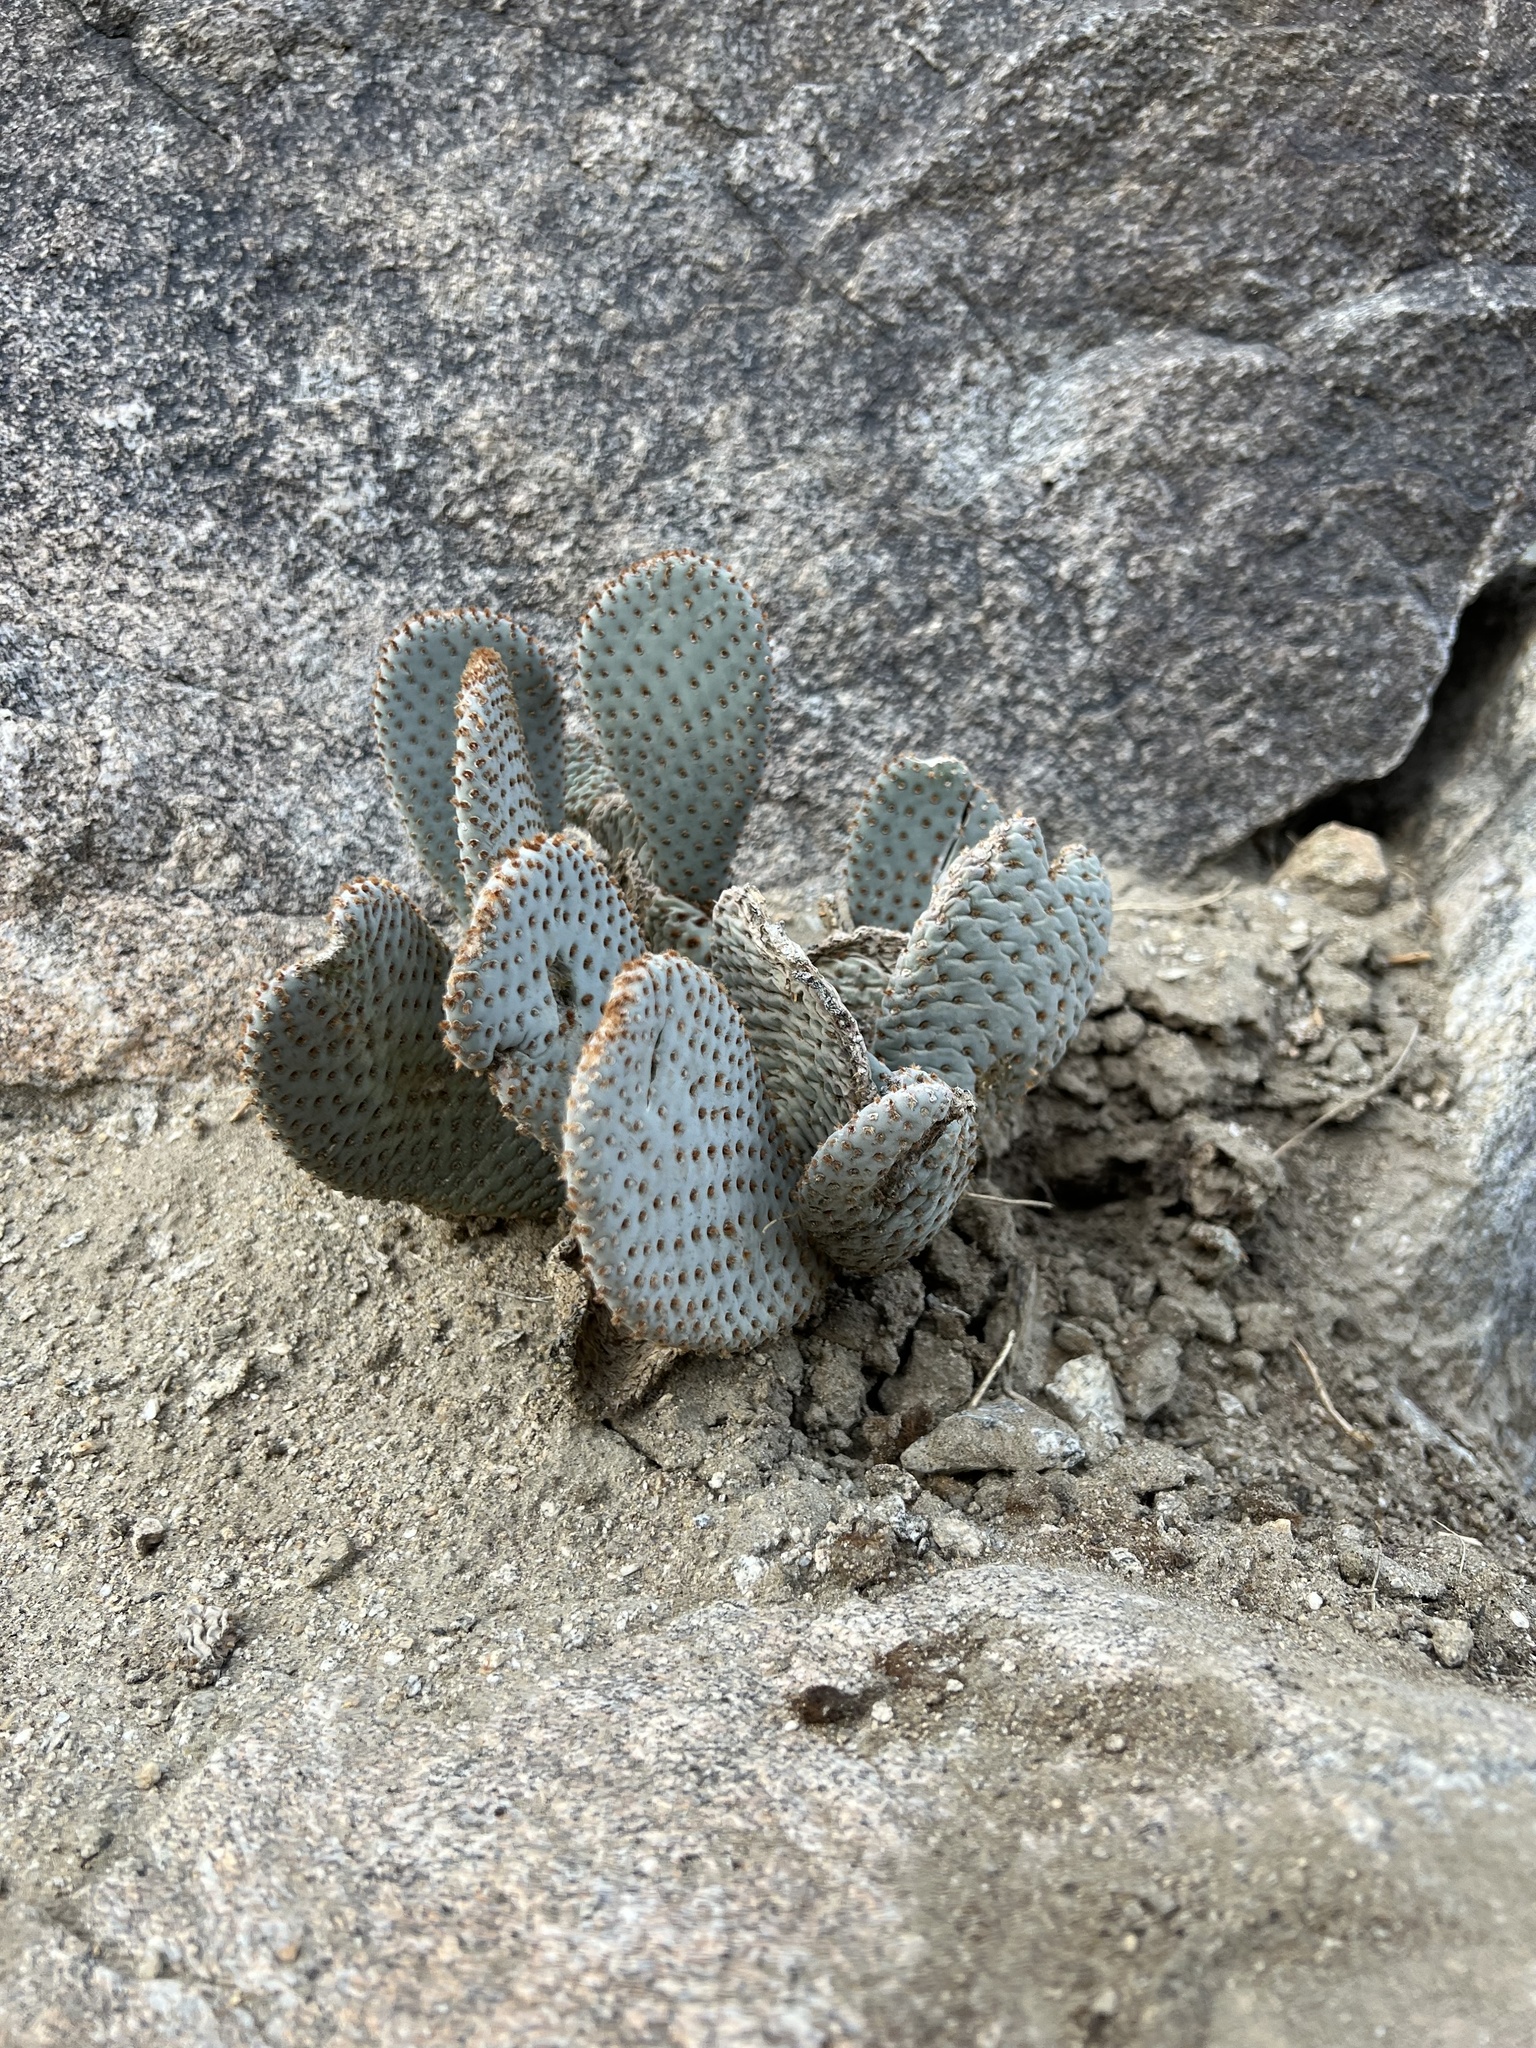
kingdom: Plantae
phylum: Tracheophyta
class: Magnoliopsida
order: Caryophyllales
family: Cactaceae
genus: Opuntia
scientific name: Opuntia basilaris
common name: Beavertail prickly-pear
